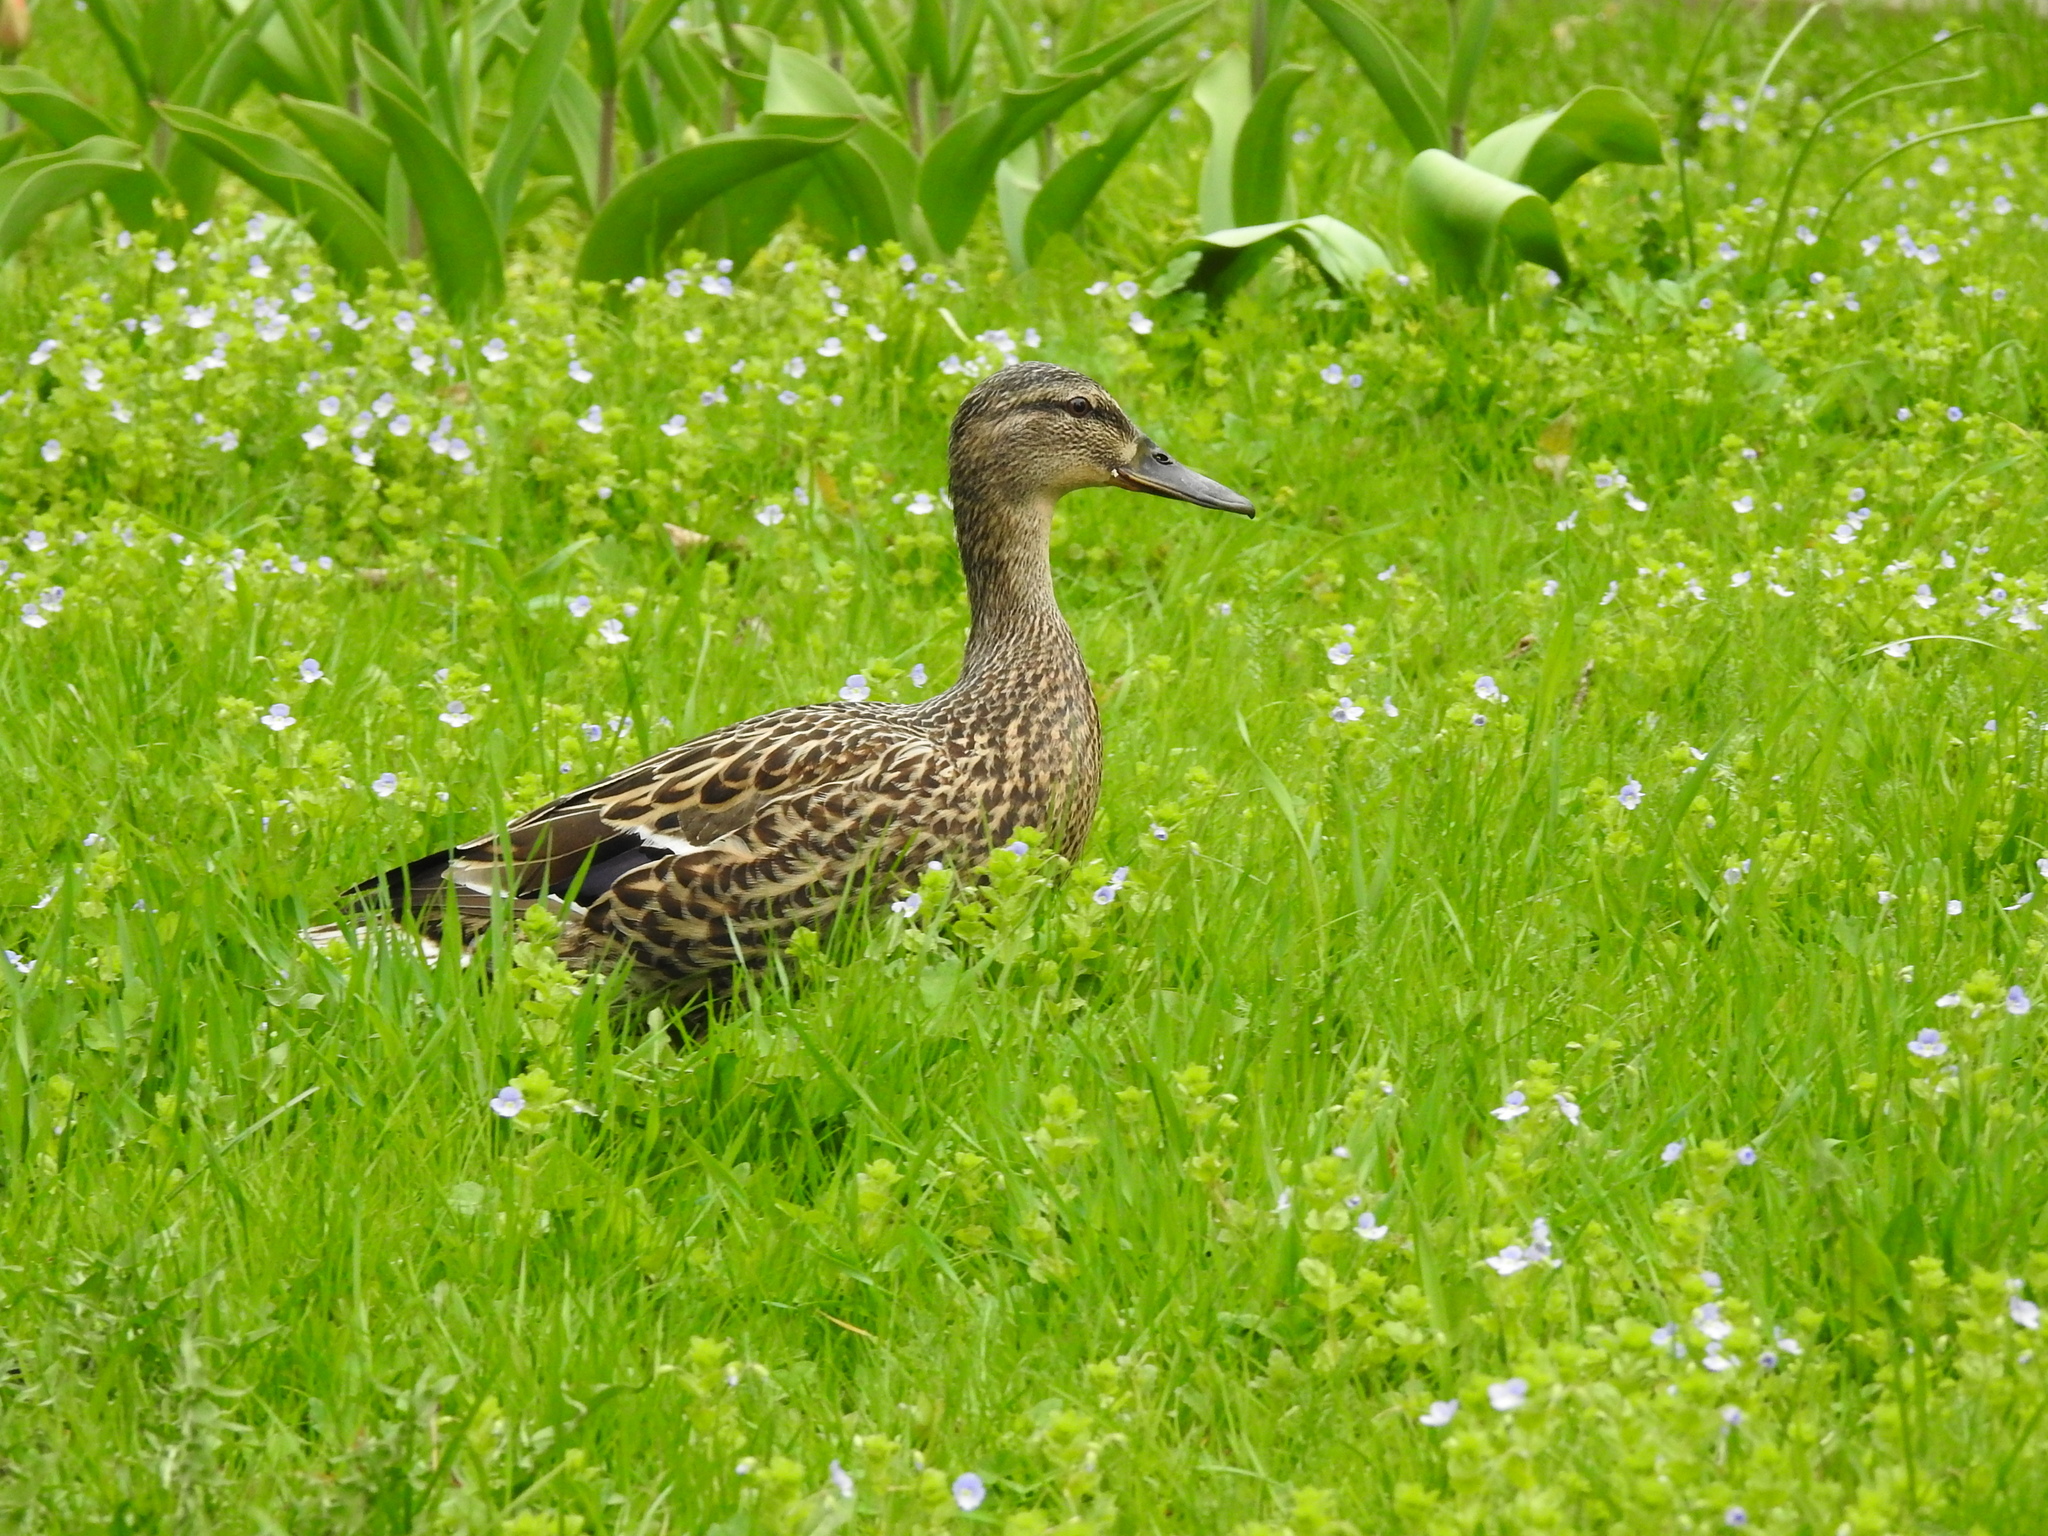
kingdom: Animalia
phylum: Chordata
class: Aves
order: Anseriformes
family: Anatidae
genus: Anas
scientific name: Anas platyrhynchos
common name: Mallard
